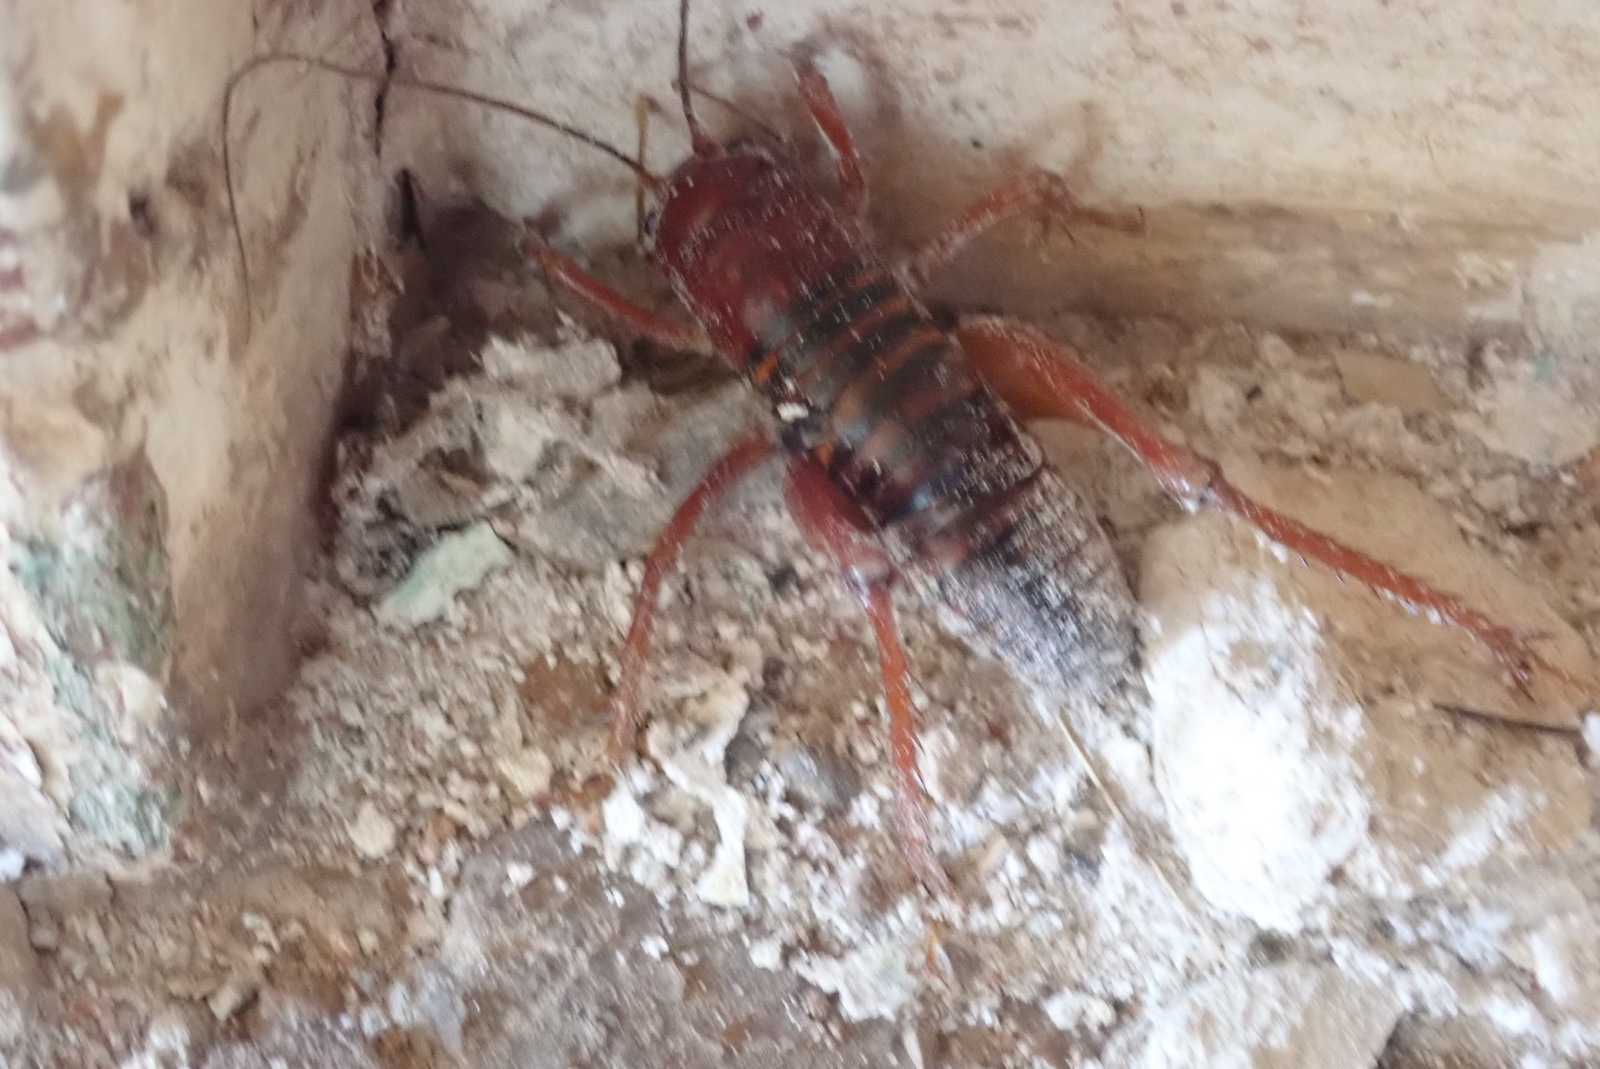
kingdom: Animalia
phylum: Arthropoda
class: Insecta
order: Orthoptera
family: Anostostomatidae
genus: Libanasidus
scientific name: Libanasidus vittatus
